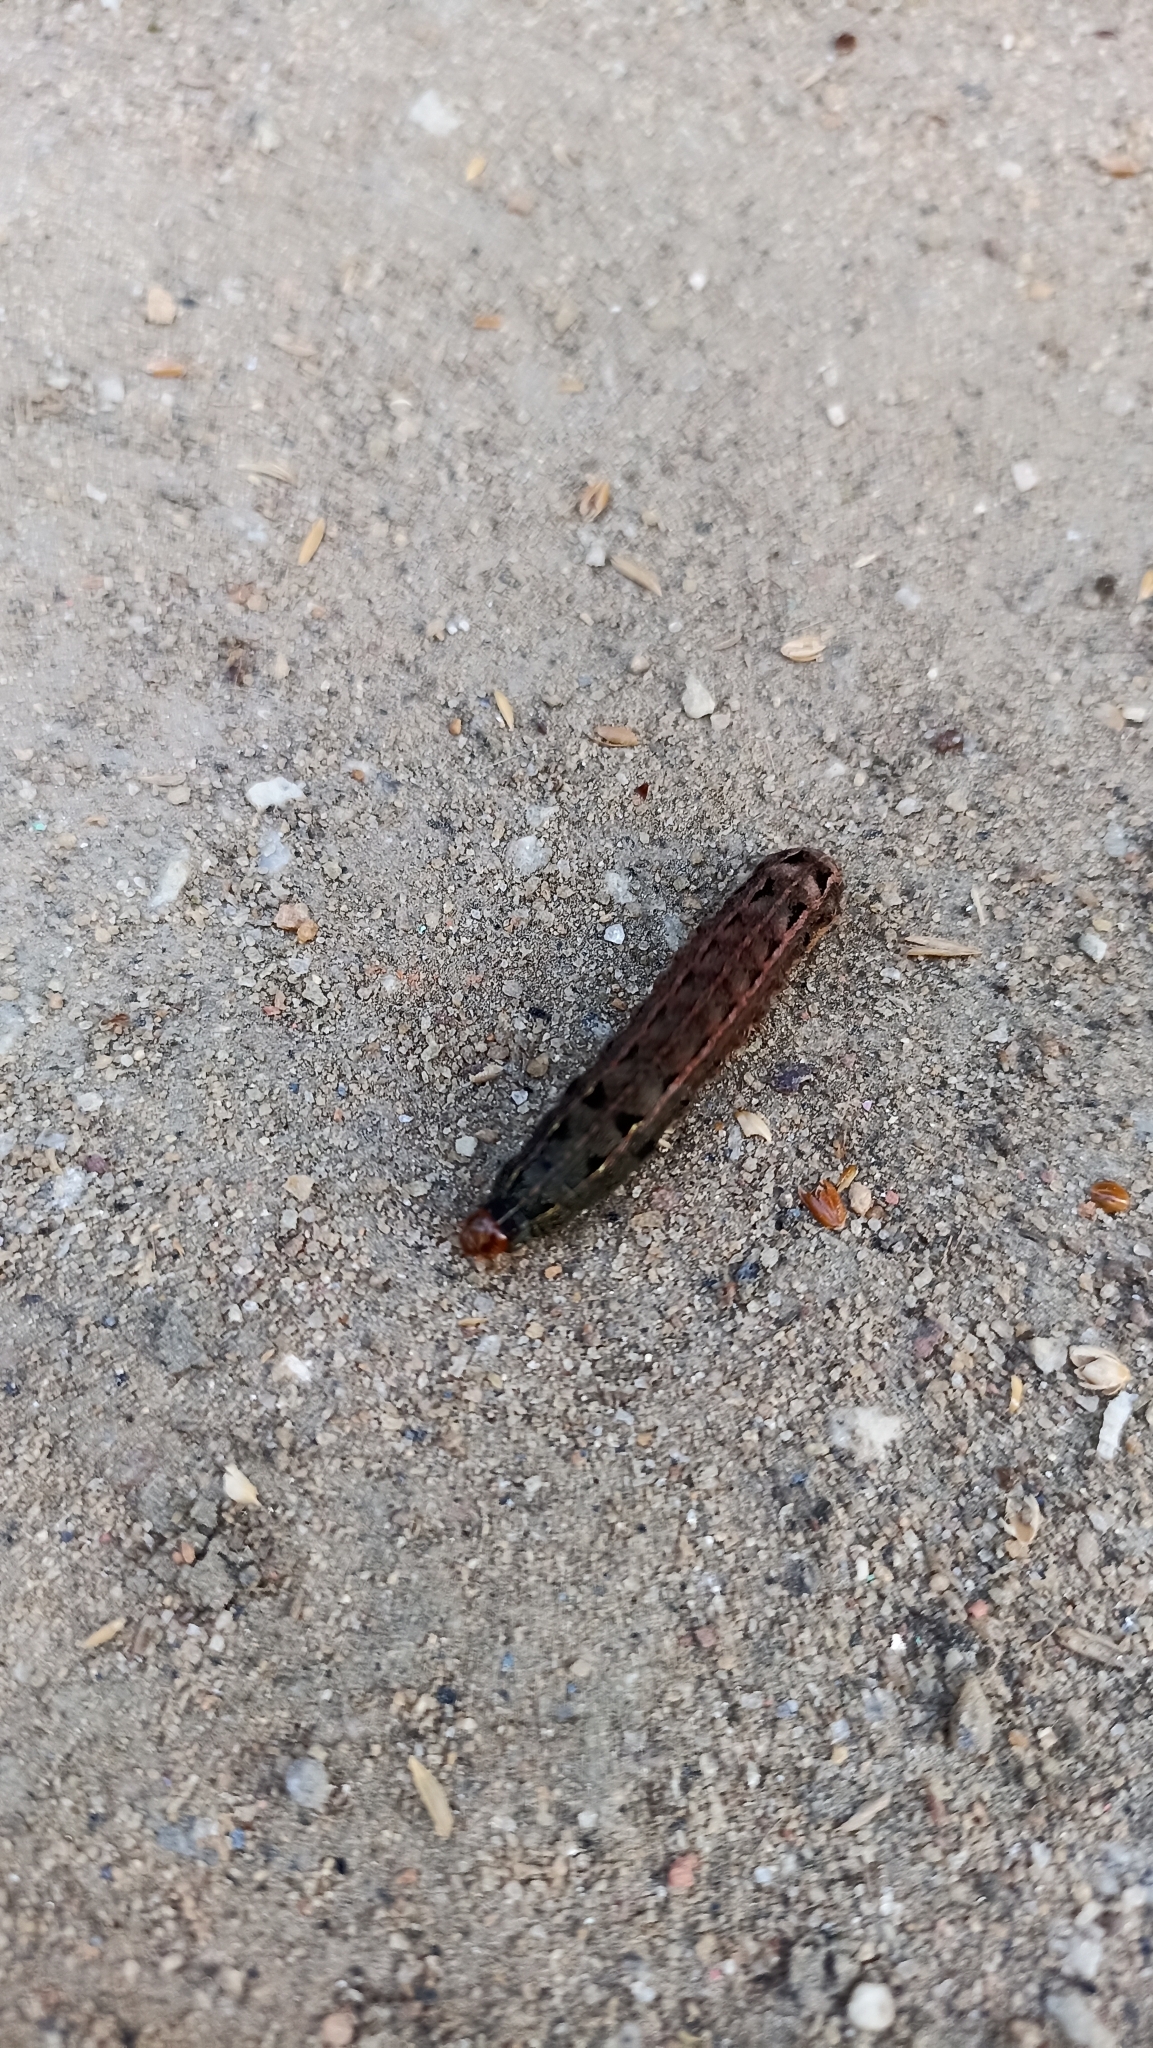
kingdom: Animalia
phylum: Arthropoda
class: Insecta
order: Lepidoptera
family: Noctuidae
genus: Spodoptera
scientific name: Spodoptera eridania
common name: Southern army worm
